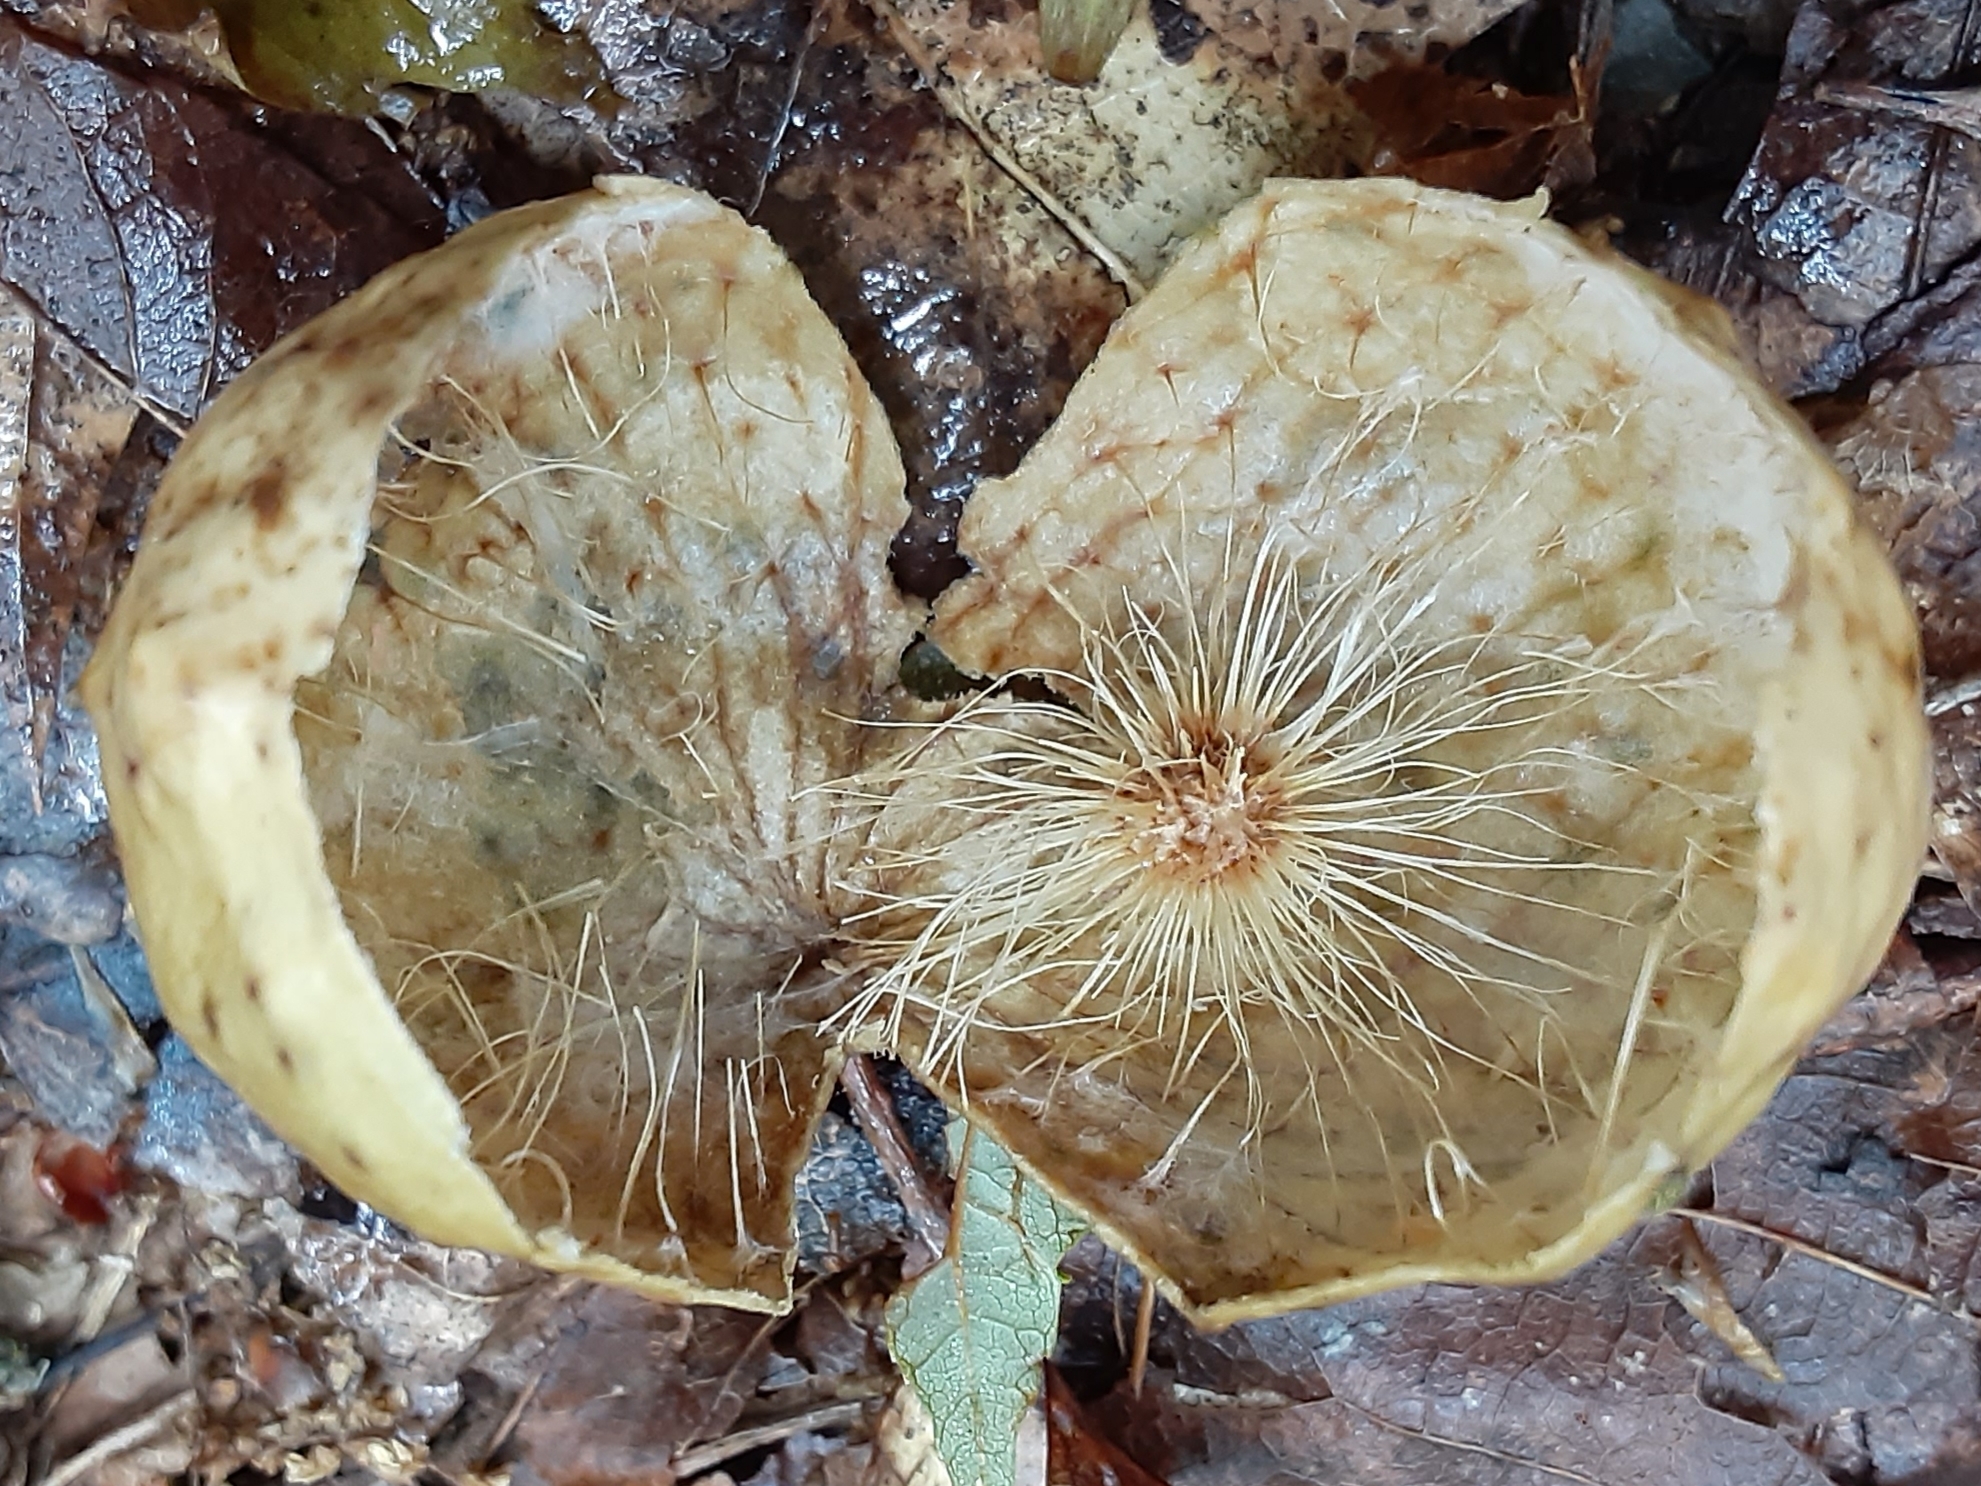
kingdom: Animalia
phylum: Arthropoda
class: Insecta
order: Hymenoptera
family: Cynipidae
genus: Amphibolips
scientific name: Amphibolips
